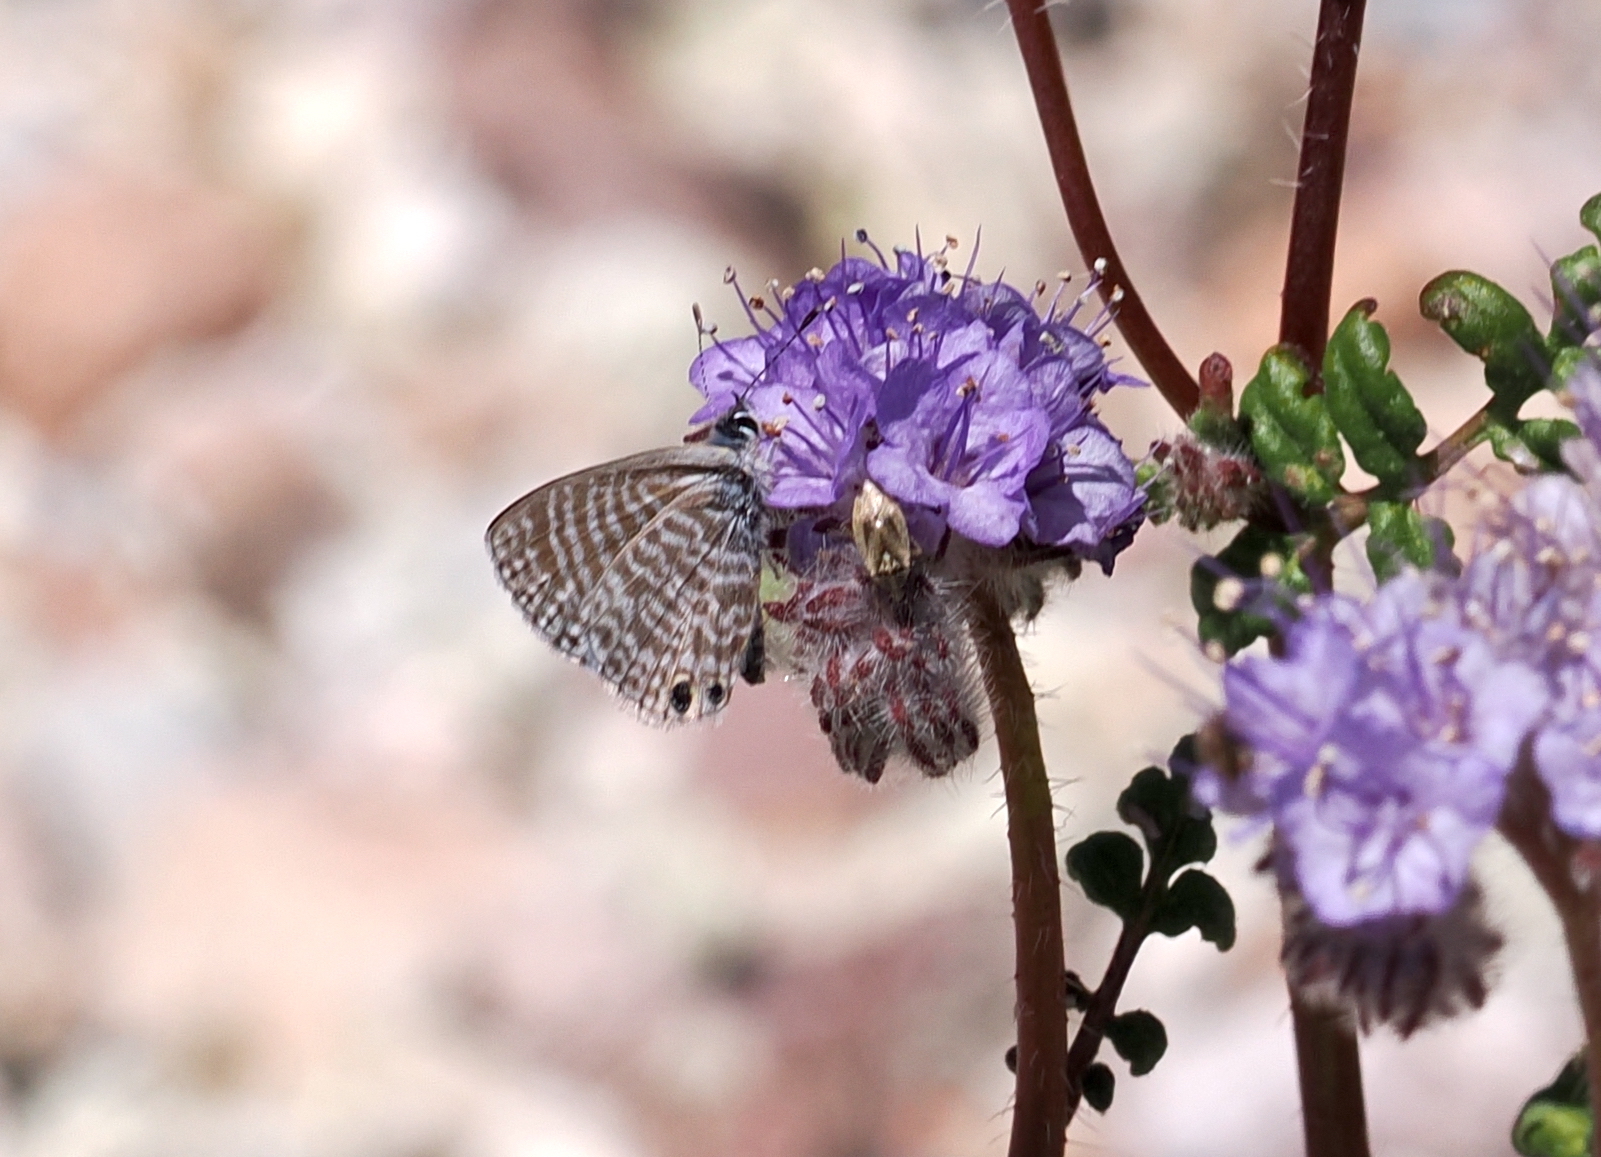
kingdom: Animalia
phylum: Arthropoda
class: Insecta
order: Lepidoptera
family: Lycaenidae
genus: Leptotes
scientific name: Leptotes marina
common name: Marine blue
